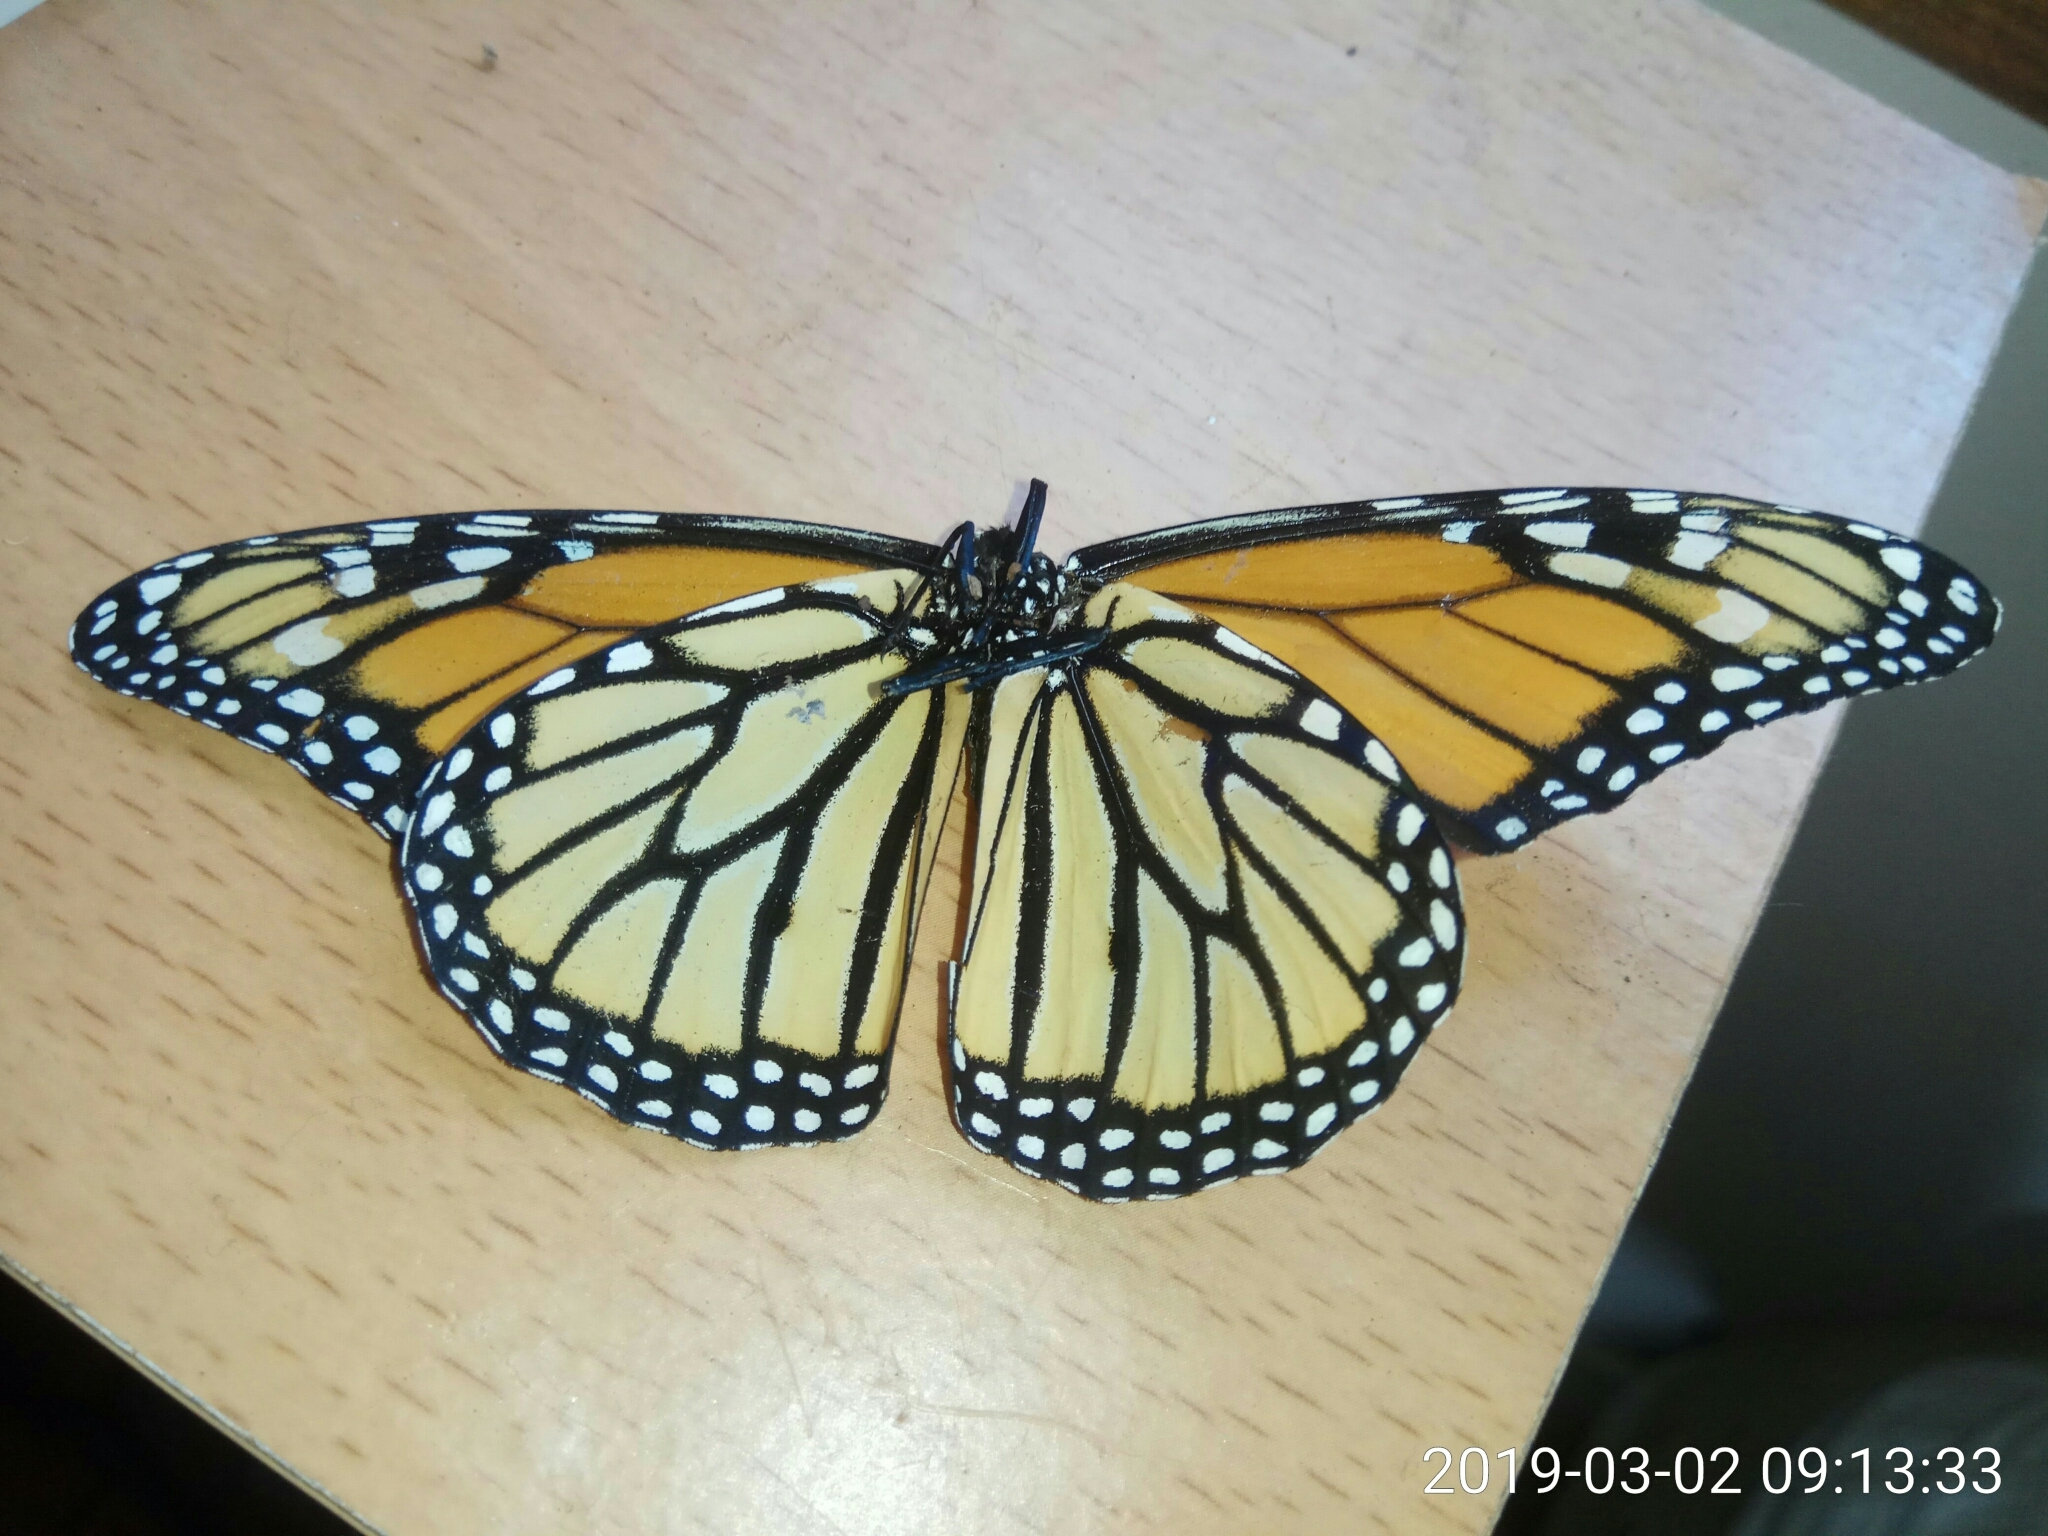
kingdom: Animalia
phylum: Arthropoda
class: Insecta
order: Lepidoptera
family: Nymphalidae
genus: Danaus
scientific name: Danaus plexippus
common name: Monarch
